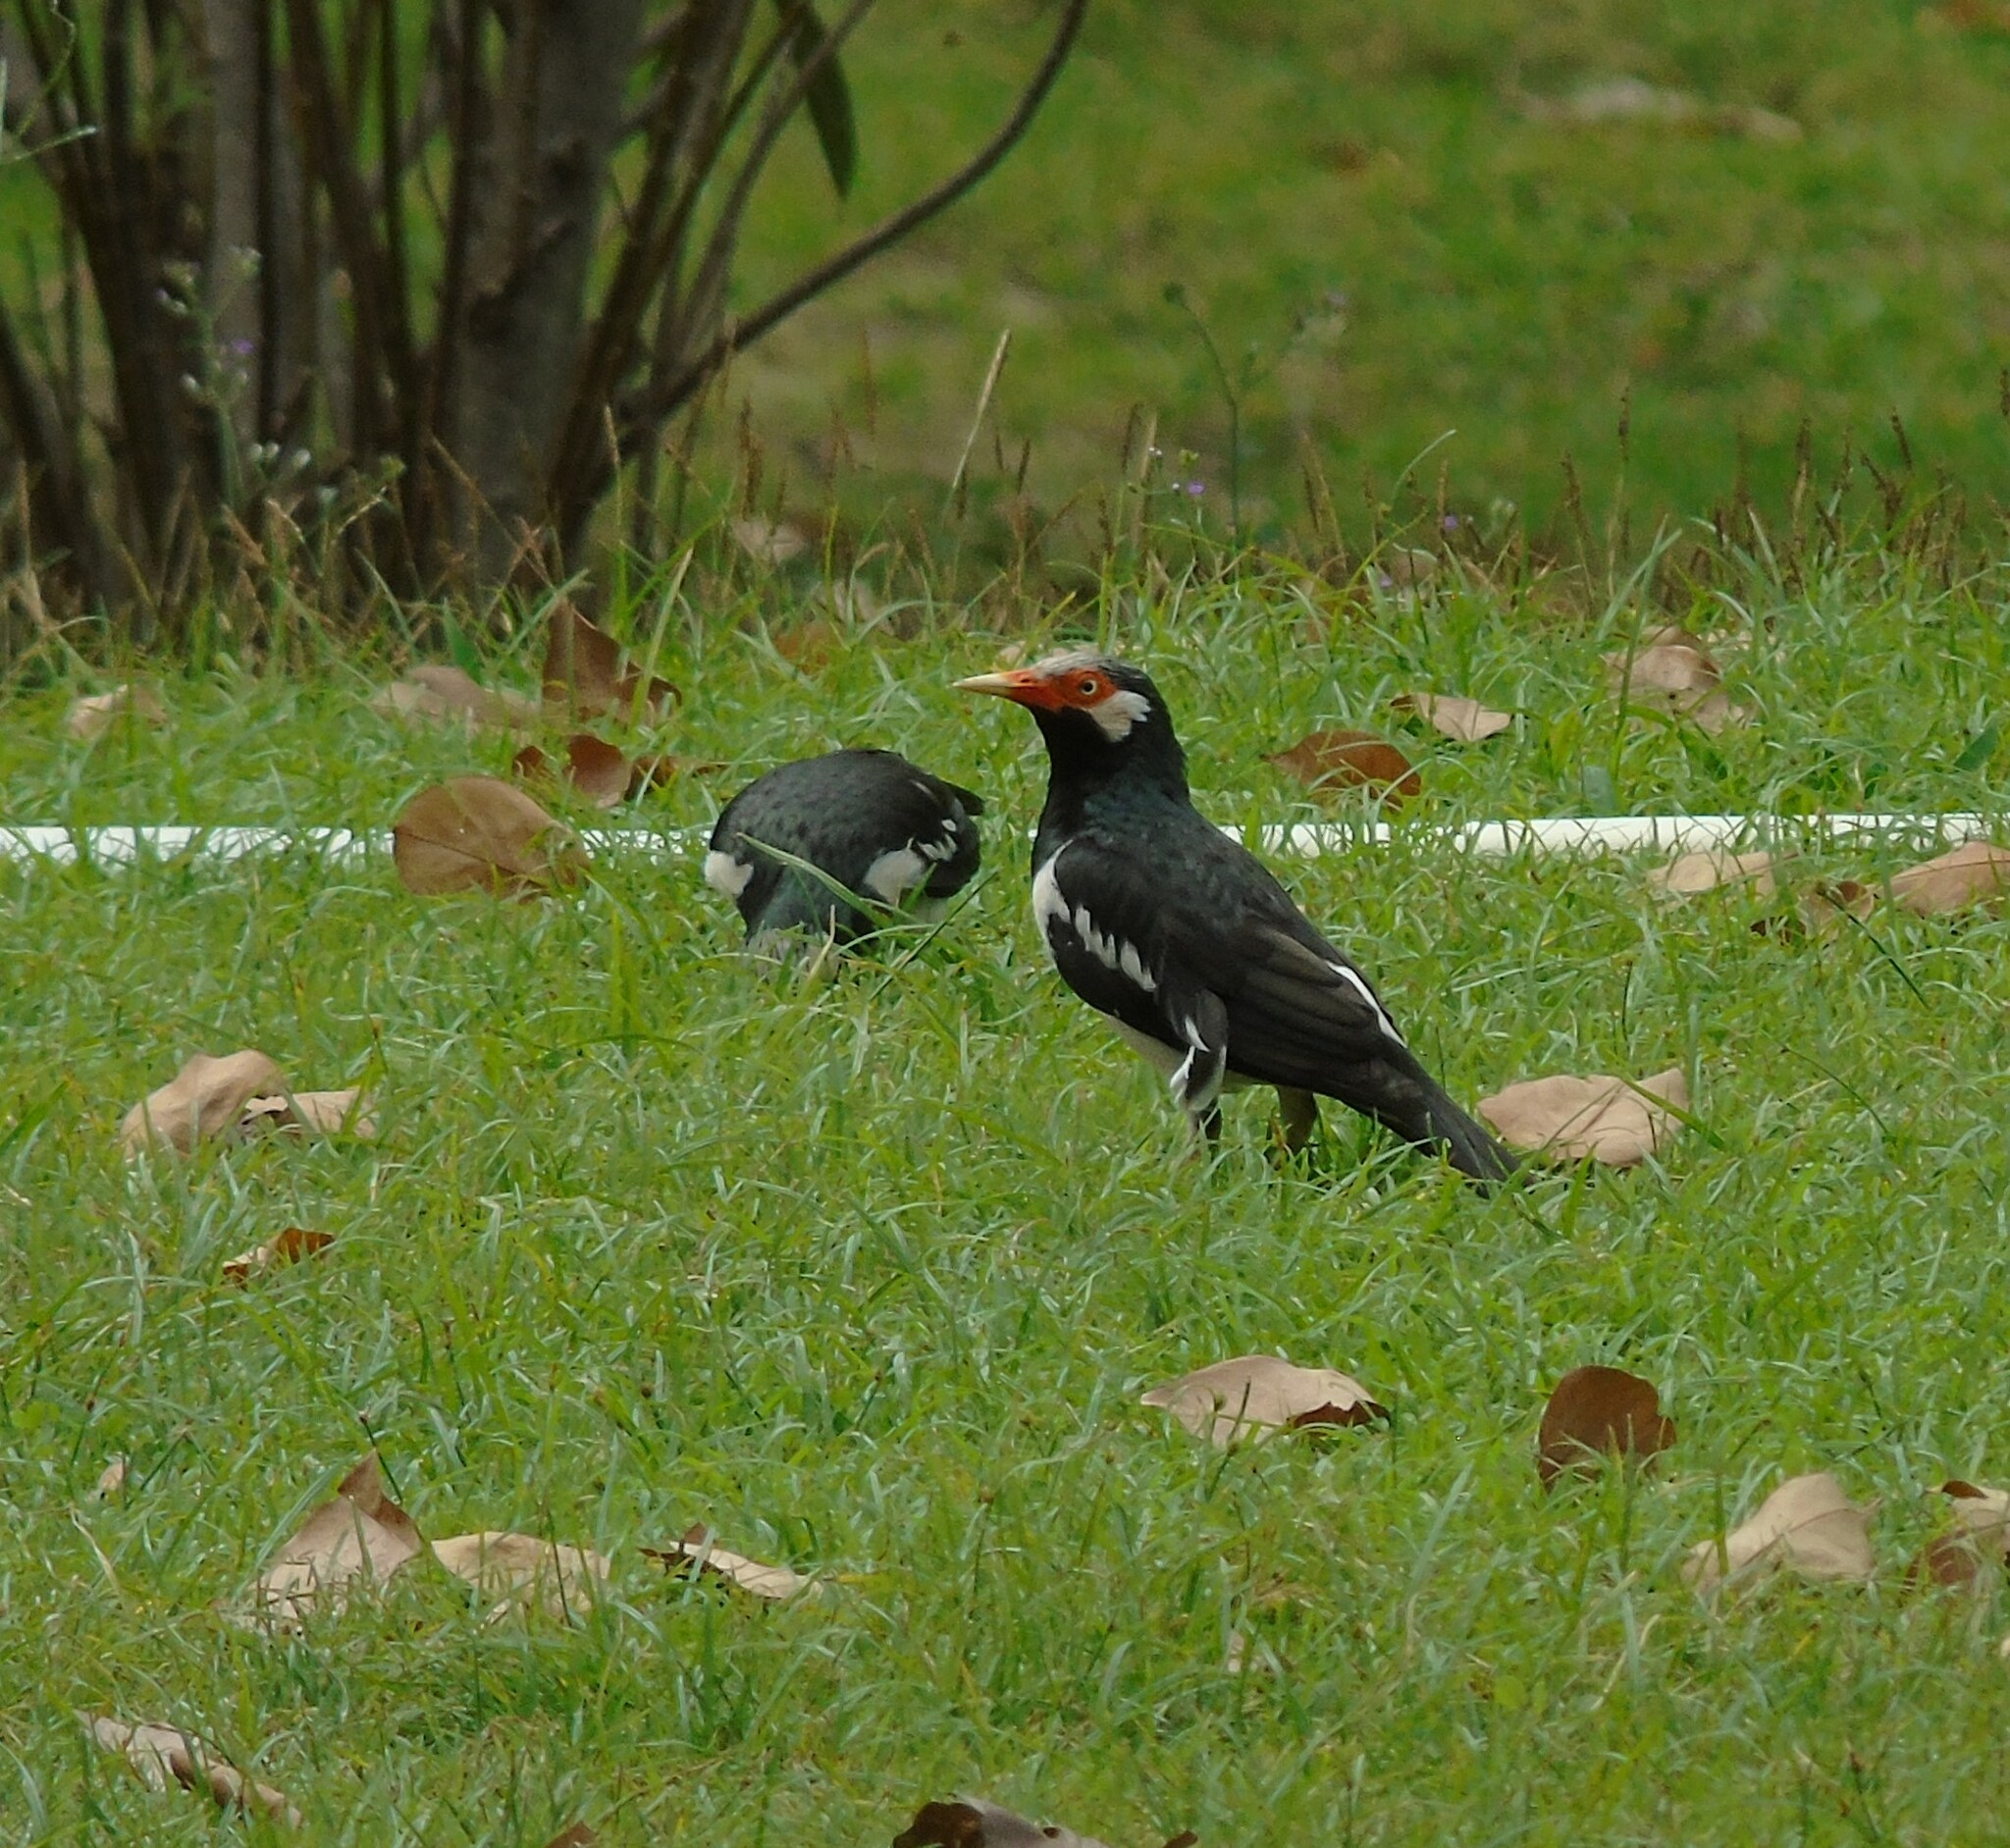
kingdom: Animalia
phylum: Chordata
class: Aves
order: Passeriformes
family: Sturnidae
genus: Gracupica
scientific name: Gracupica contra
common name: Pied myna
